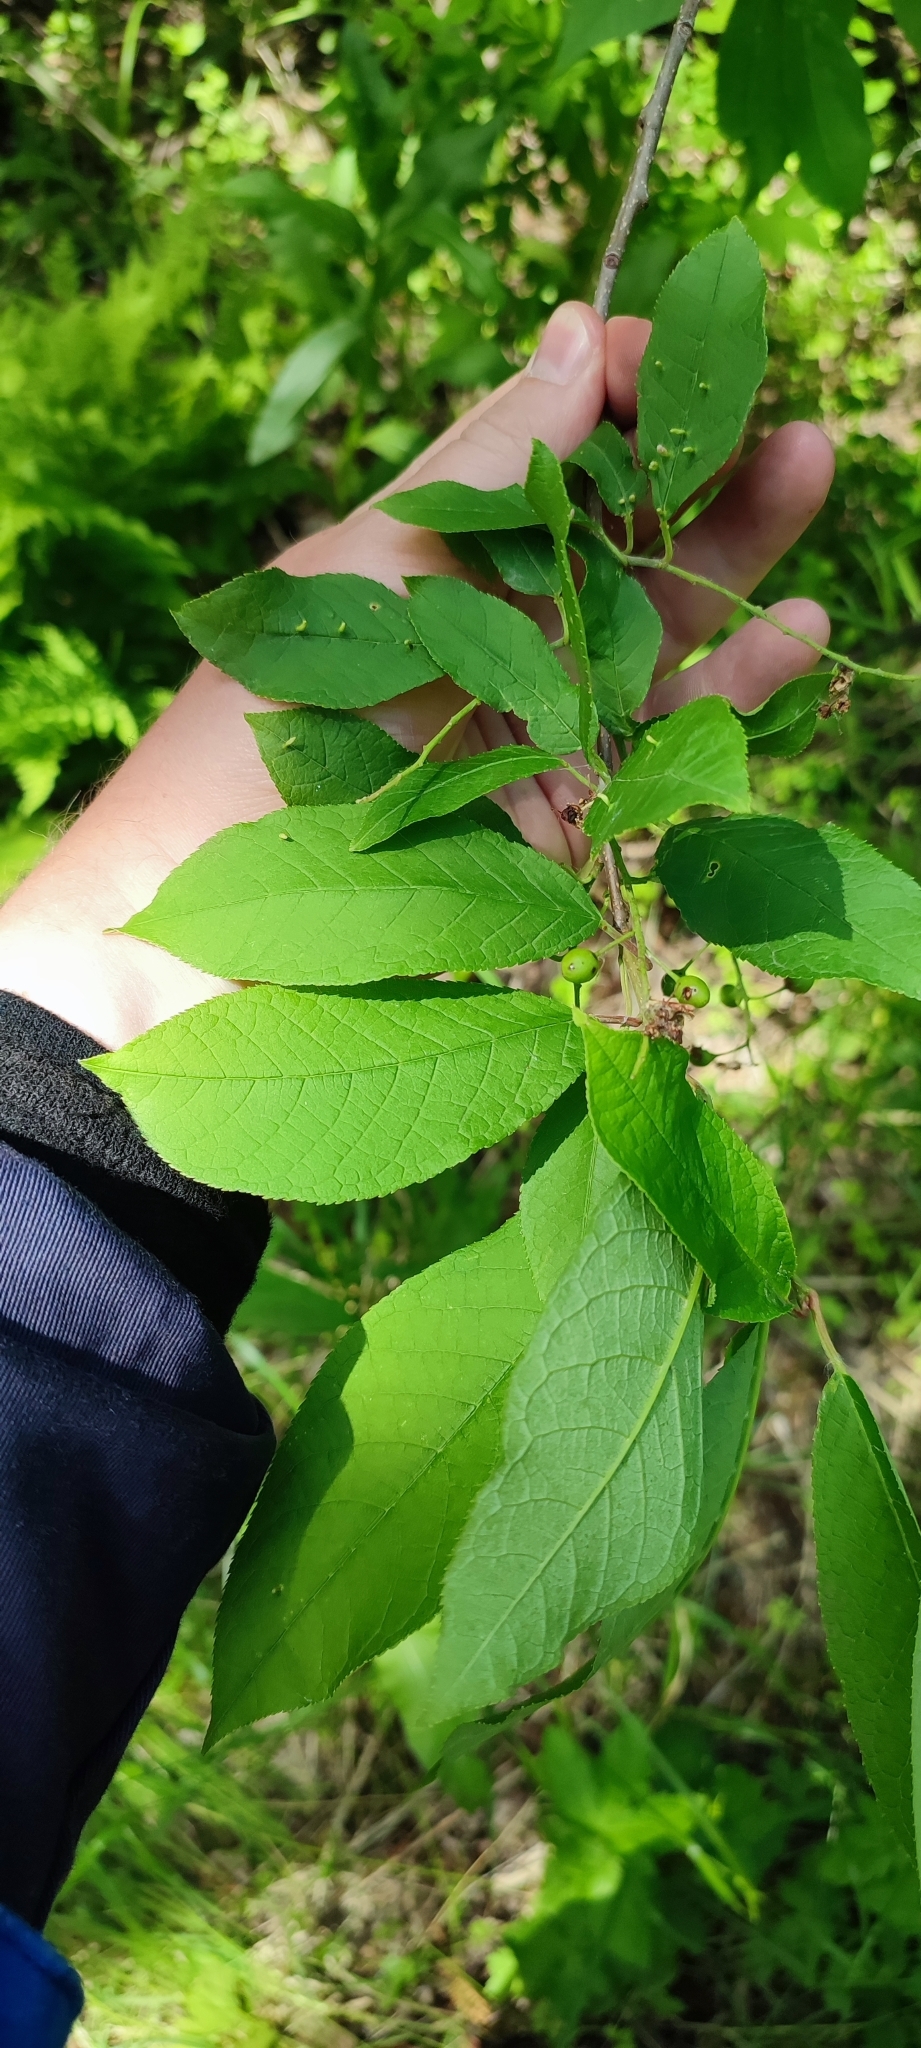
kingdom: Plantae
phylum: Tracheophyta
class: Magnoliopsida
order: Rosales
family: Rosaceae
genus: Prunus
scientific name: Prunus padus
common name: Bird cherry
